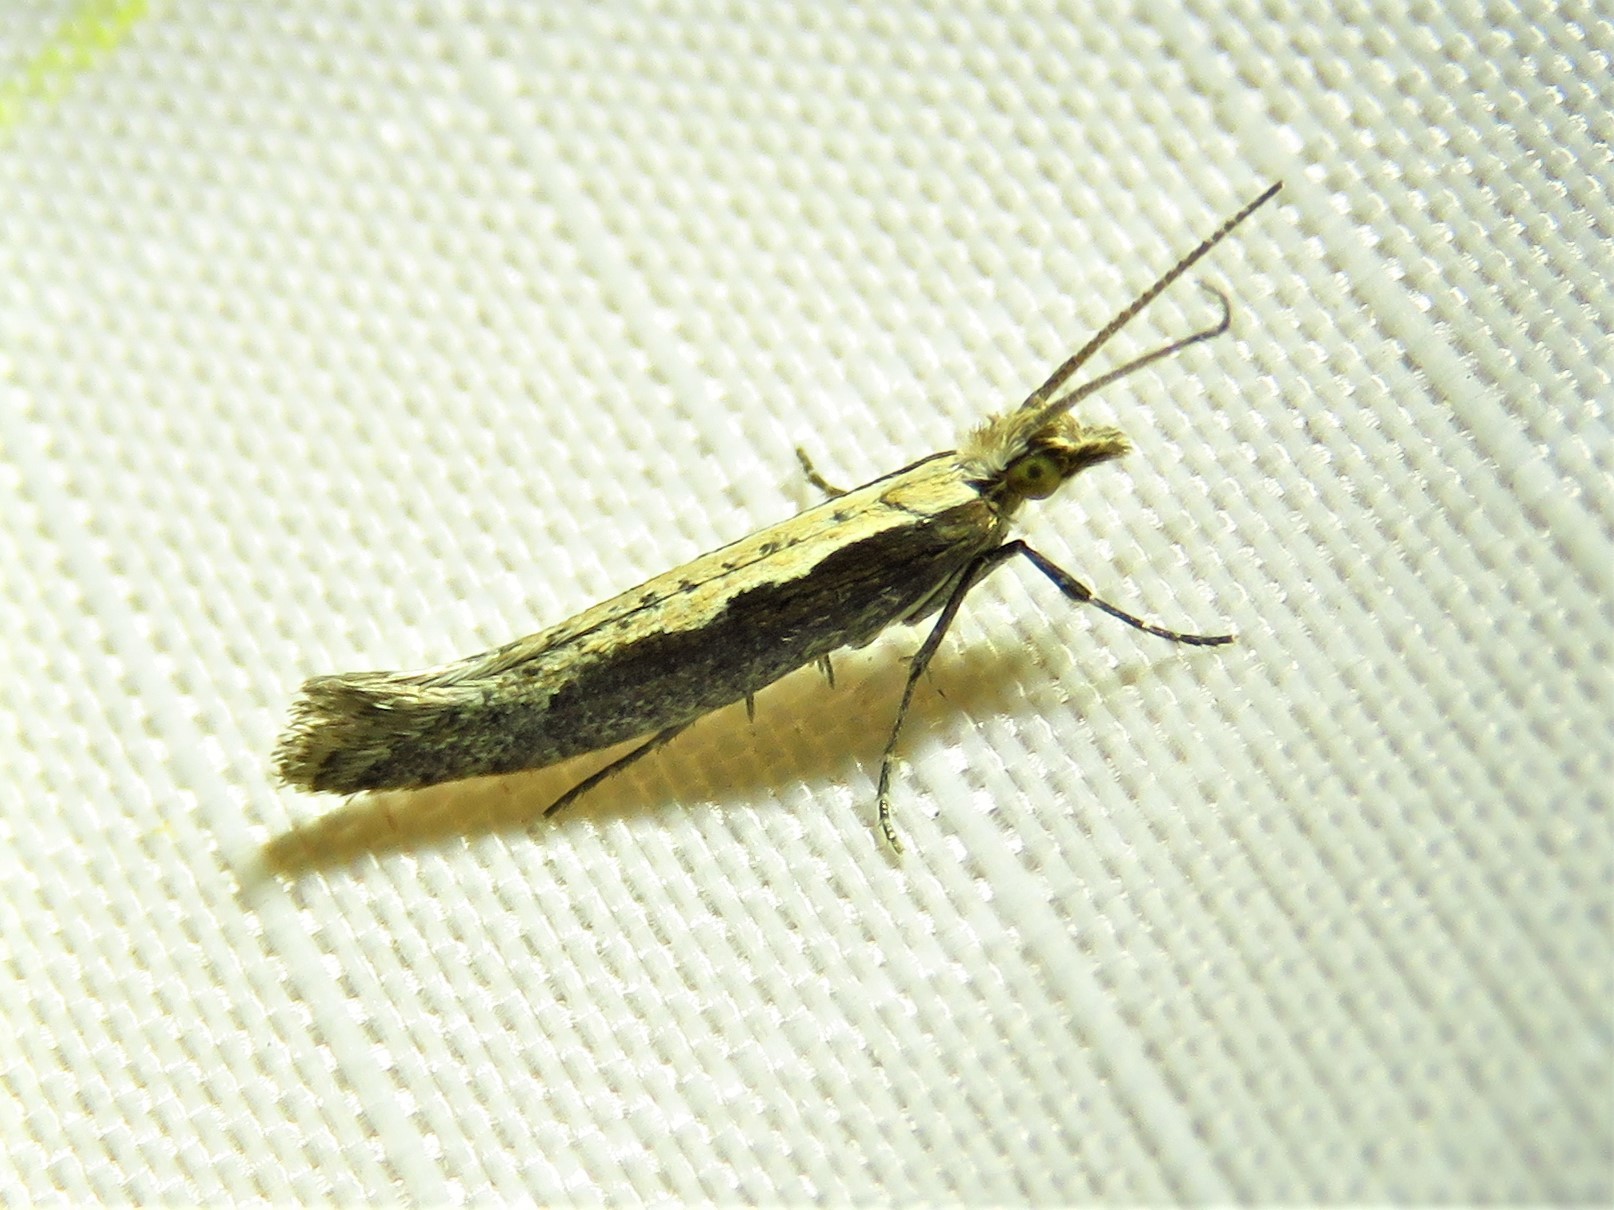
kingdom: Animalia
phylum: Arthropoda
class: Insecta
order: Lepidoptera
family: Plutellidae
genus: Plutella
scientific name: Plutella xylostella
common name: Diamond-back moth
